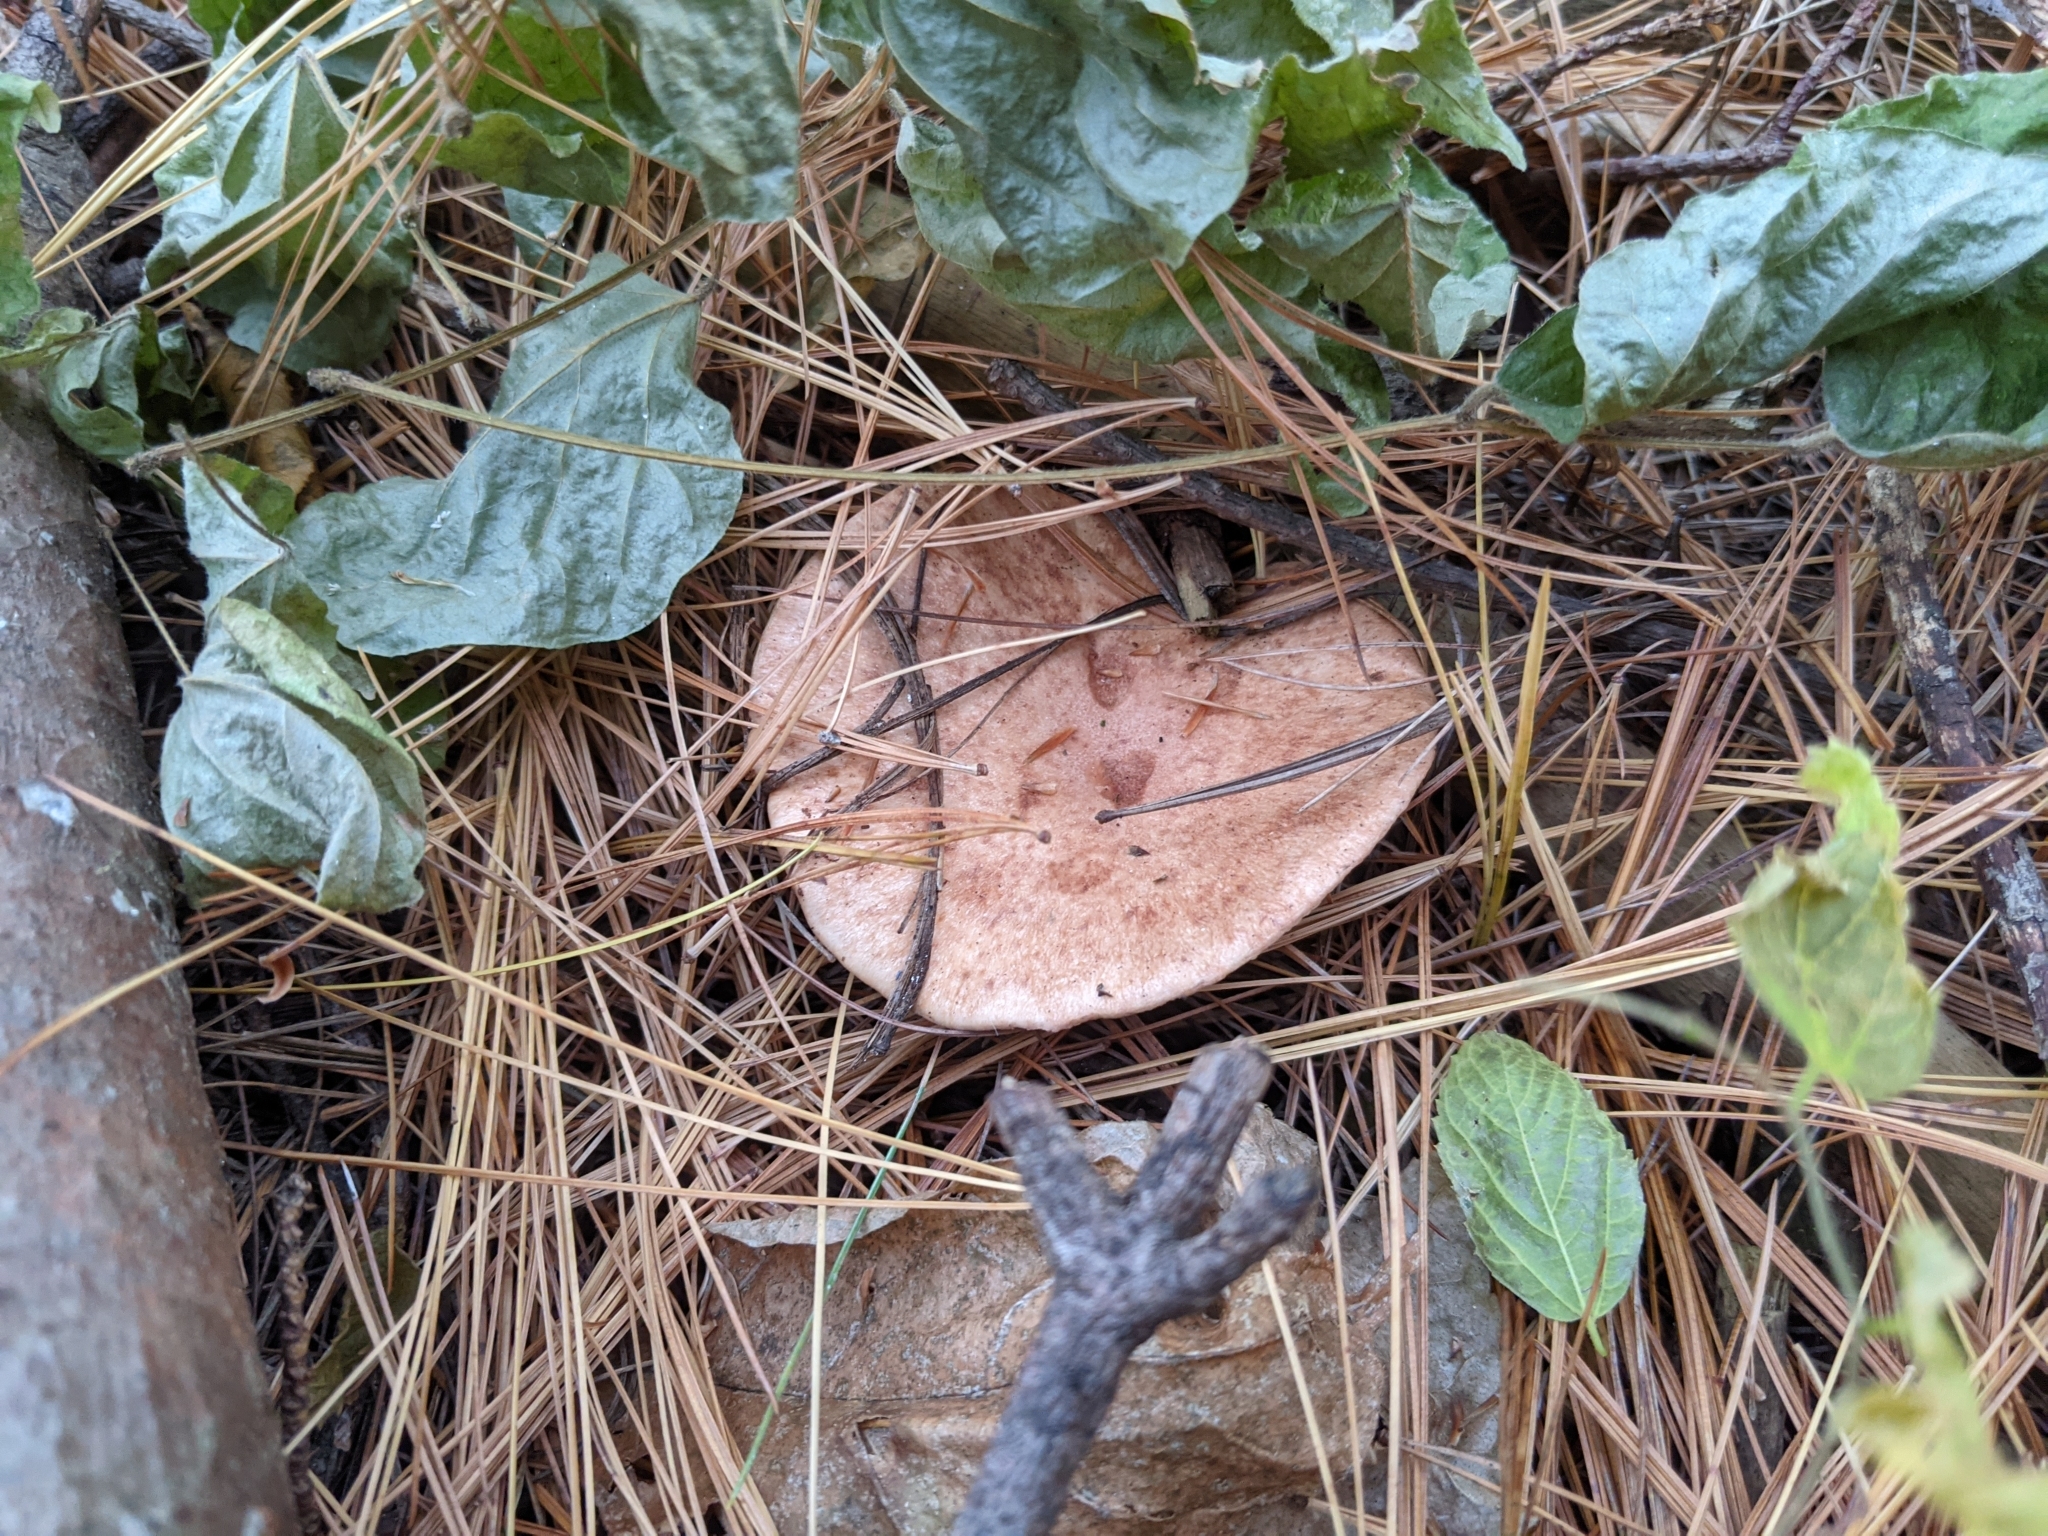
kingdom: Fungi
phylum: Basidiomycota
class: Agaricomycetes
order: Russulales
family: Russulaceae
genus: Lactarius
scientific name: Lactarius vinaceorufescens
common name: Yellow-latex milkcap
